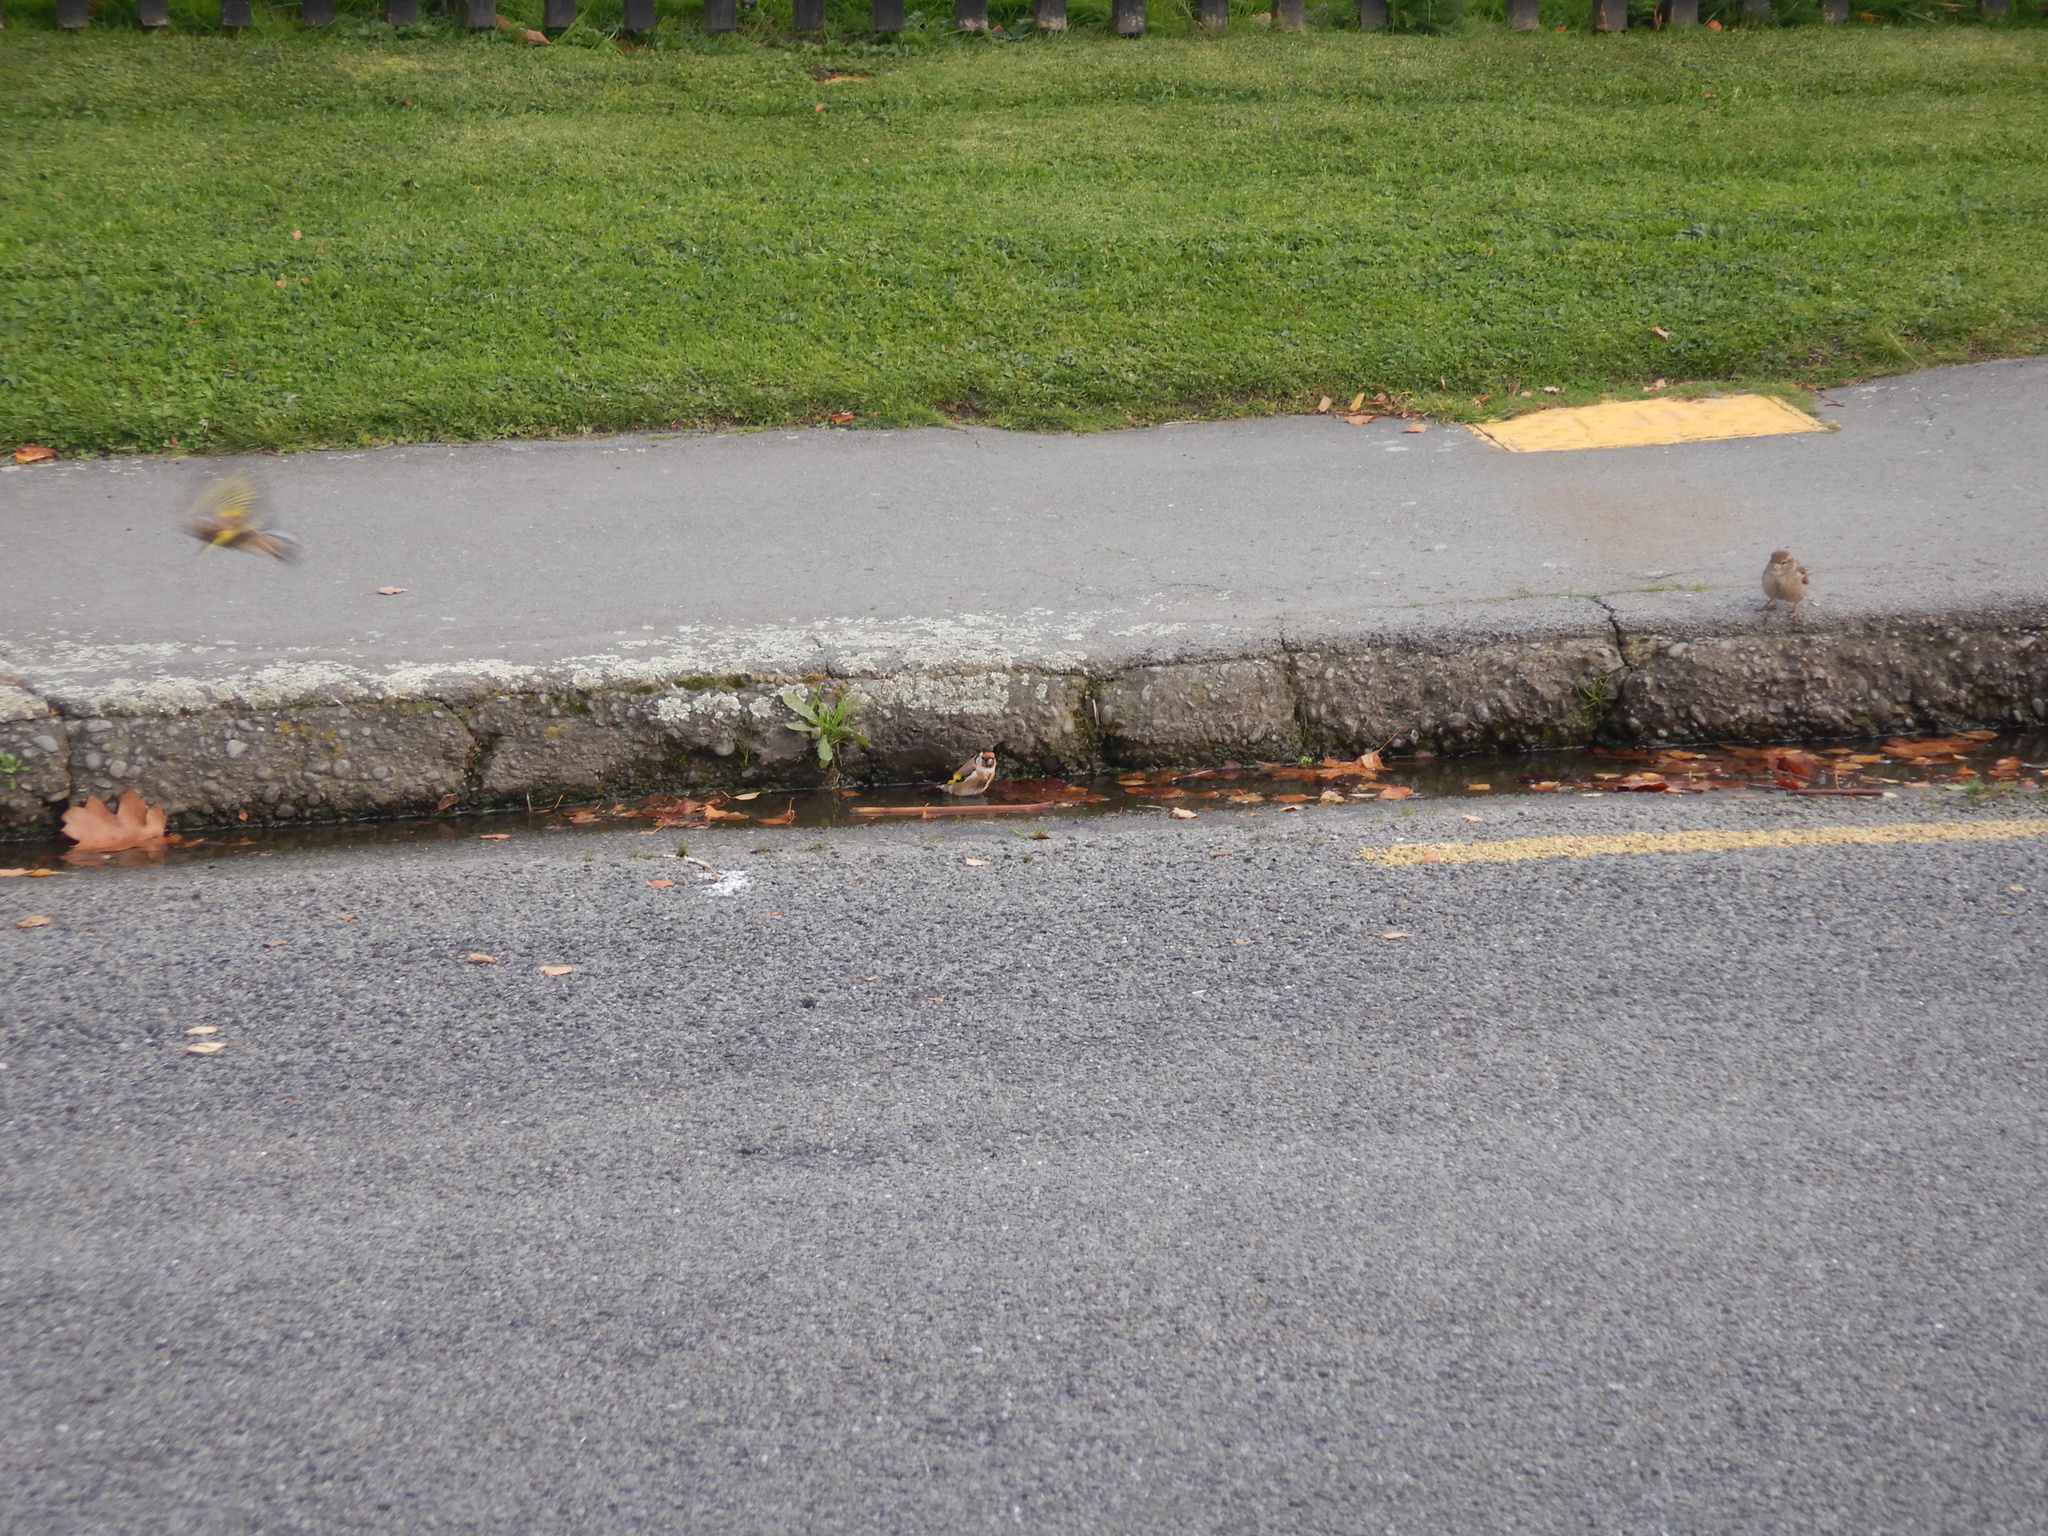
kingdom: Animalia
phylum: Chordata
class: Aves
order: Passeriformes
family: Fringillidae
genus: Carduelis
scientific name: Carduelis carduelis
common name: European goldfinch
